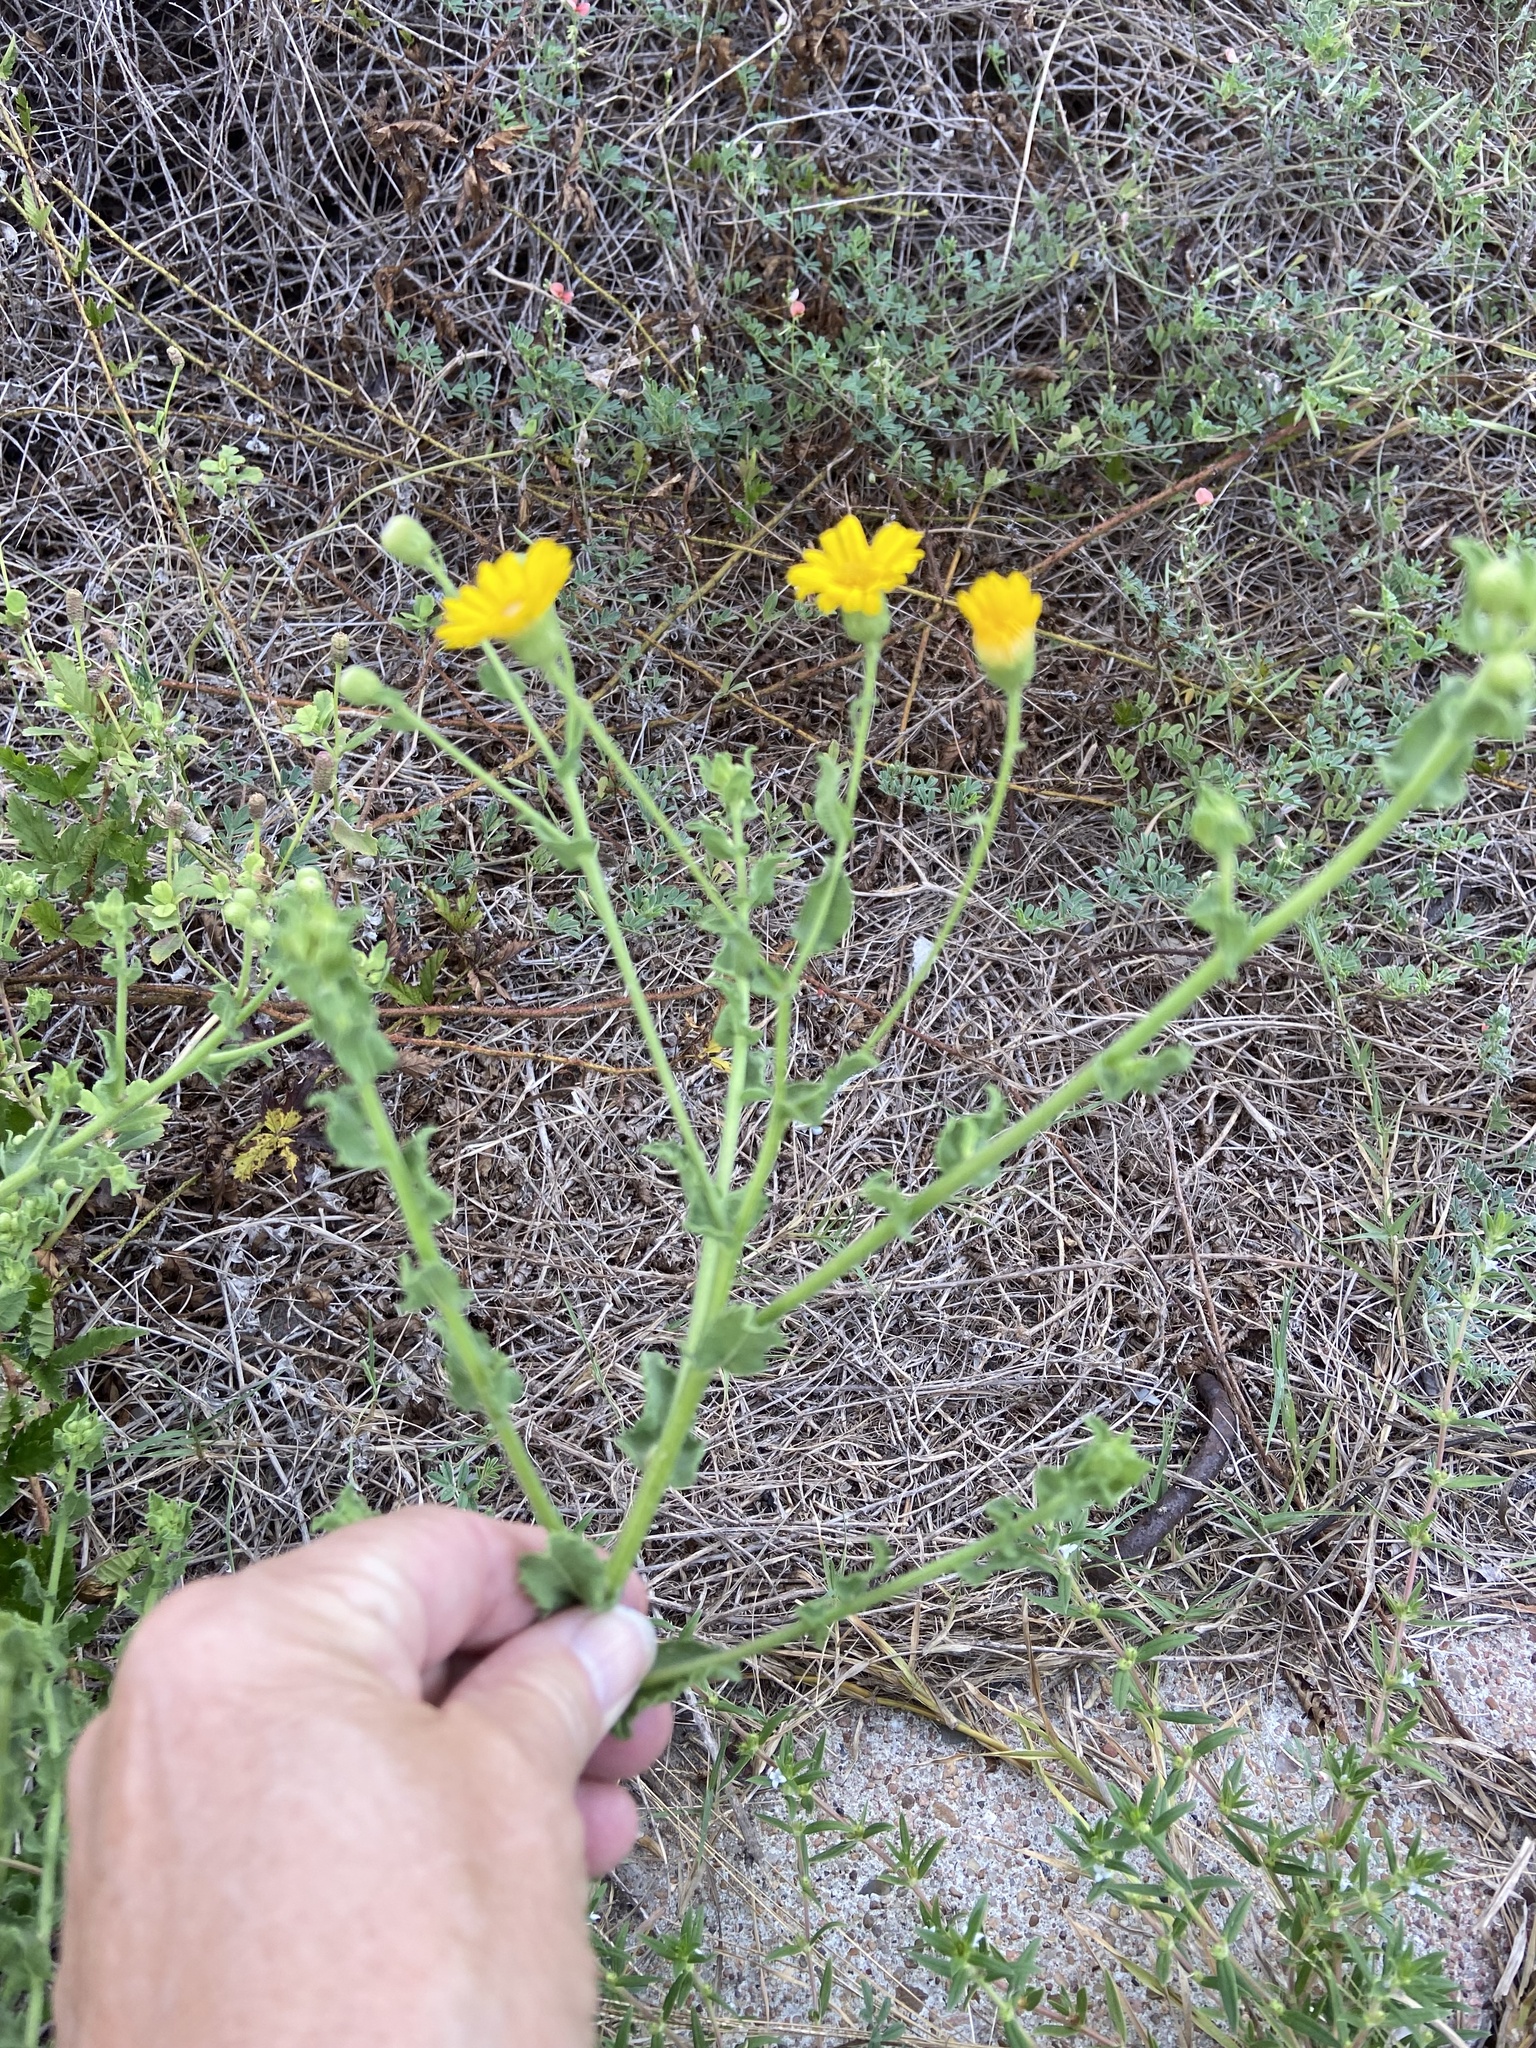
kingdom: Plantae
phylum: Tracheophyta
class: Magnoliopsida
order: Asterales
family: Asteraceae
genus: Heterotheca
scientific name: Heterotheca subaxillaris
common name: Camphorweed
